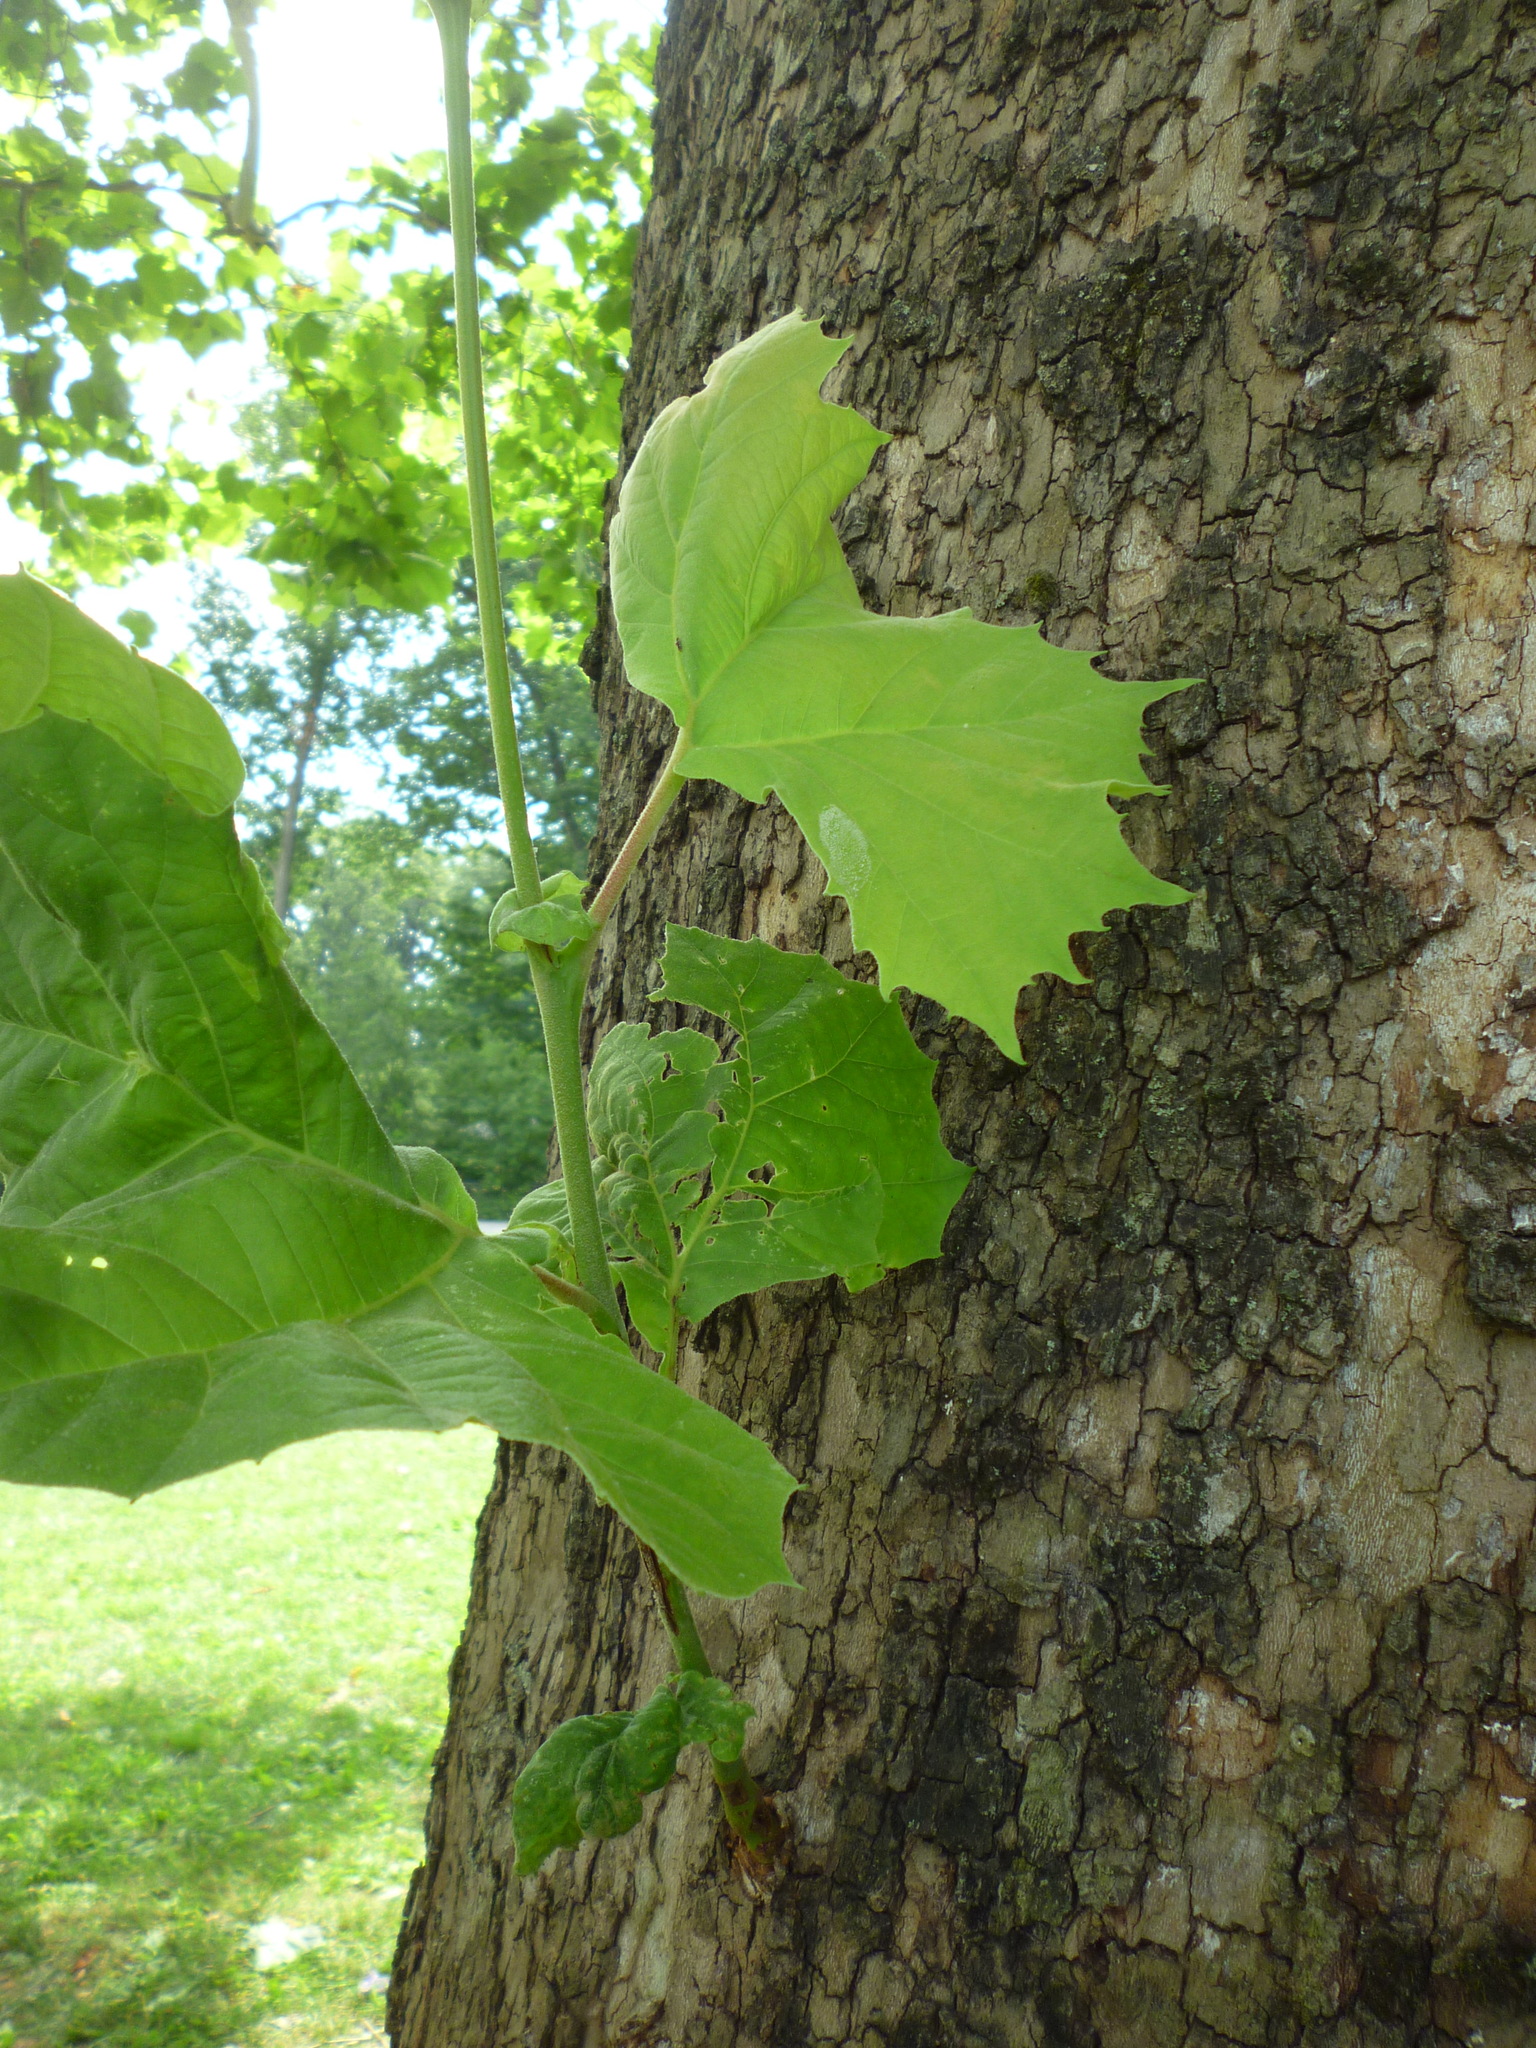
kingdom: Plantae
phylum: Tracheophyta
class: Magnoliopsida
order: Proteales
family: Platanaceae
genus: Platanus
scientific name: Platanus occidentalis
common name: American sycamore
